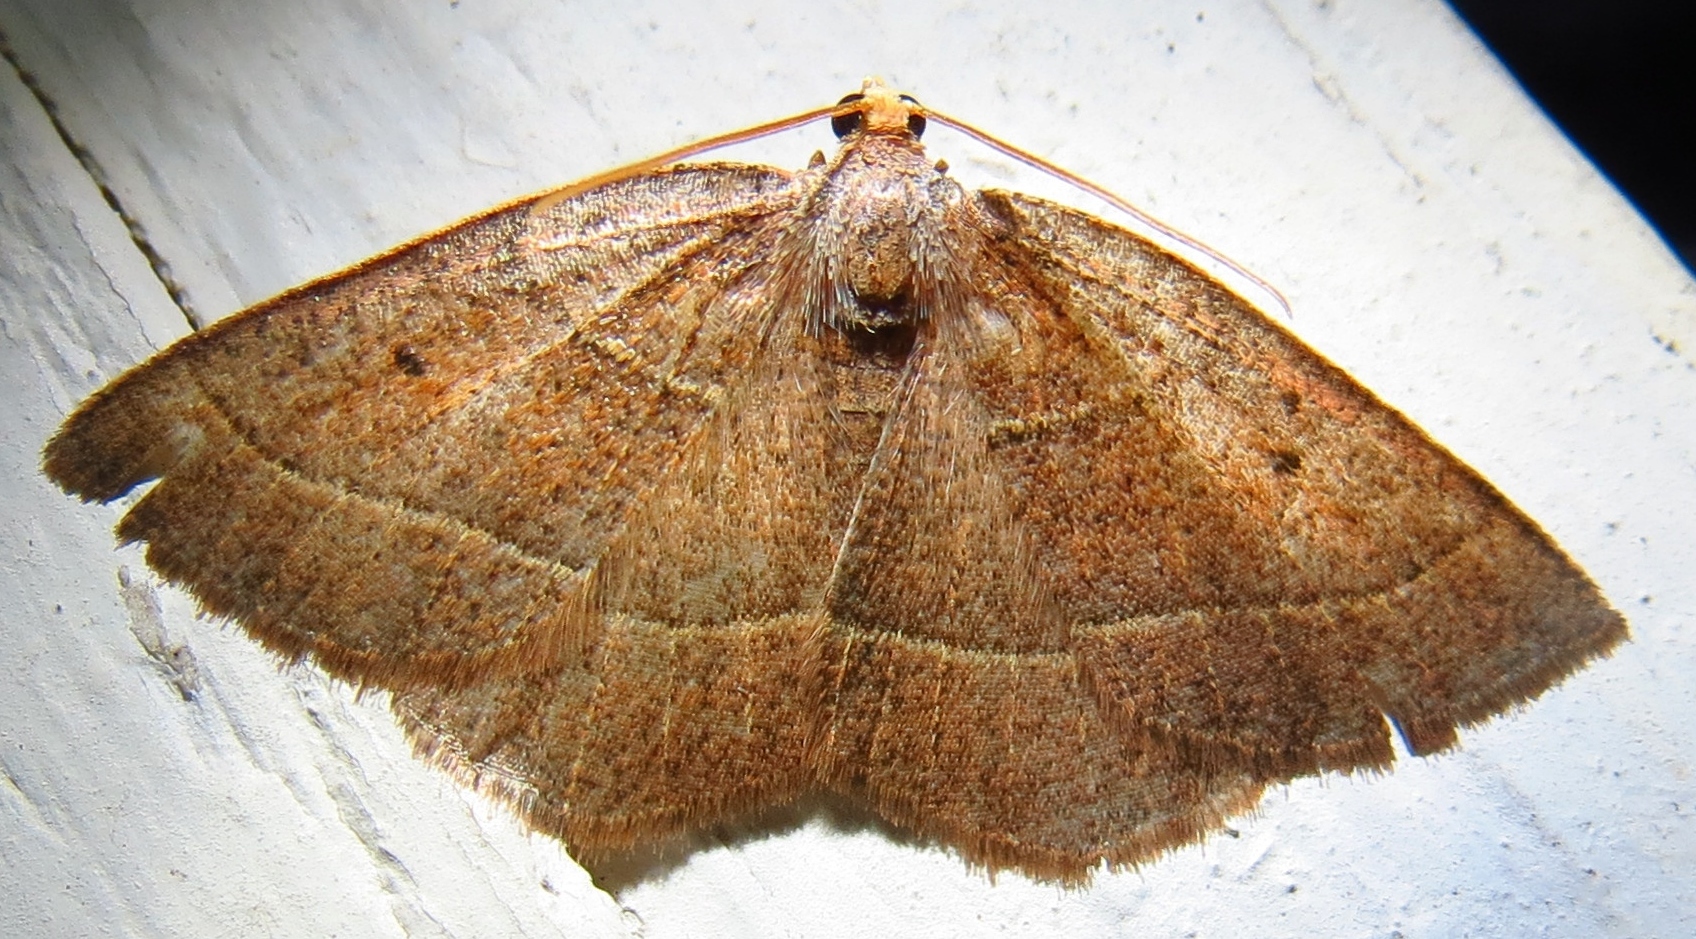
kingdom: Animalia
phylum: Arthropoda
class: Insecta
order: Lepidoptera
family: Geometridae
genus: Episemasia
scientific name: Episemasia cervinaria
